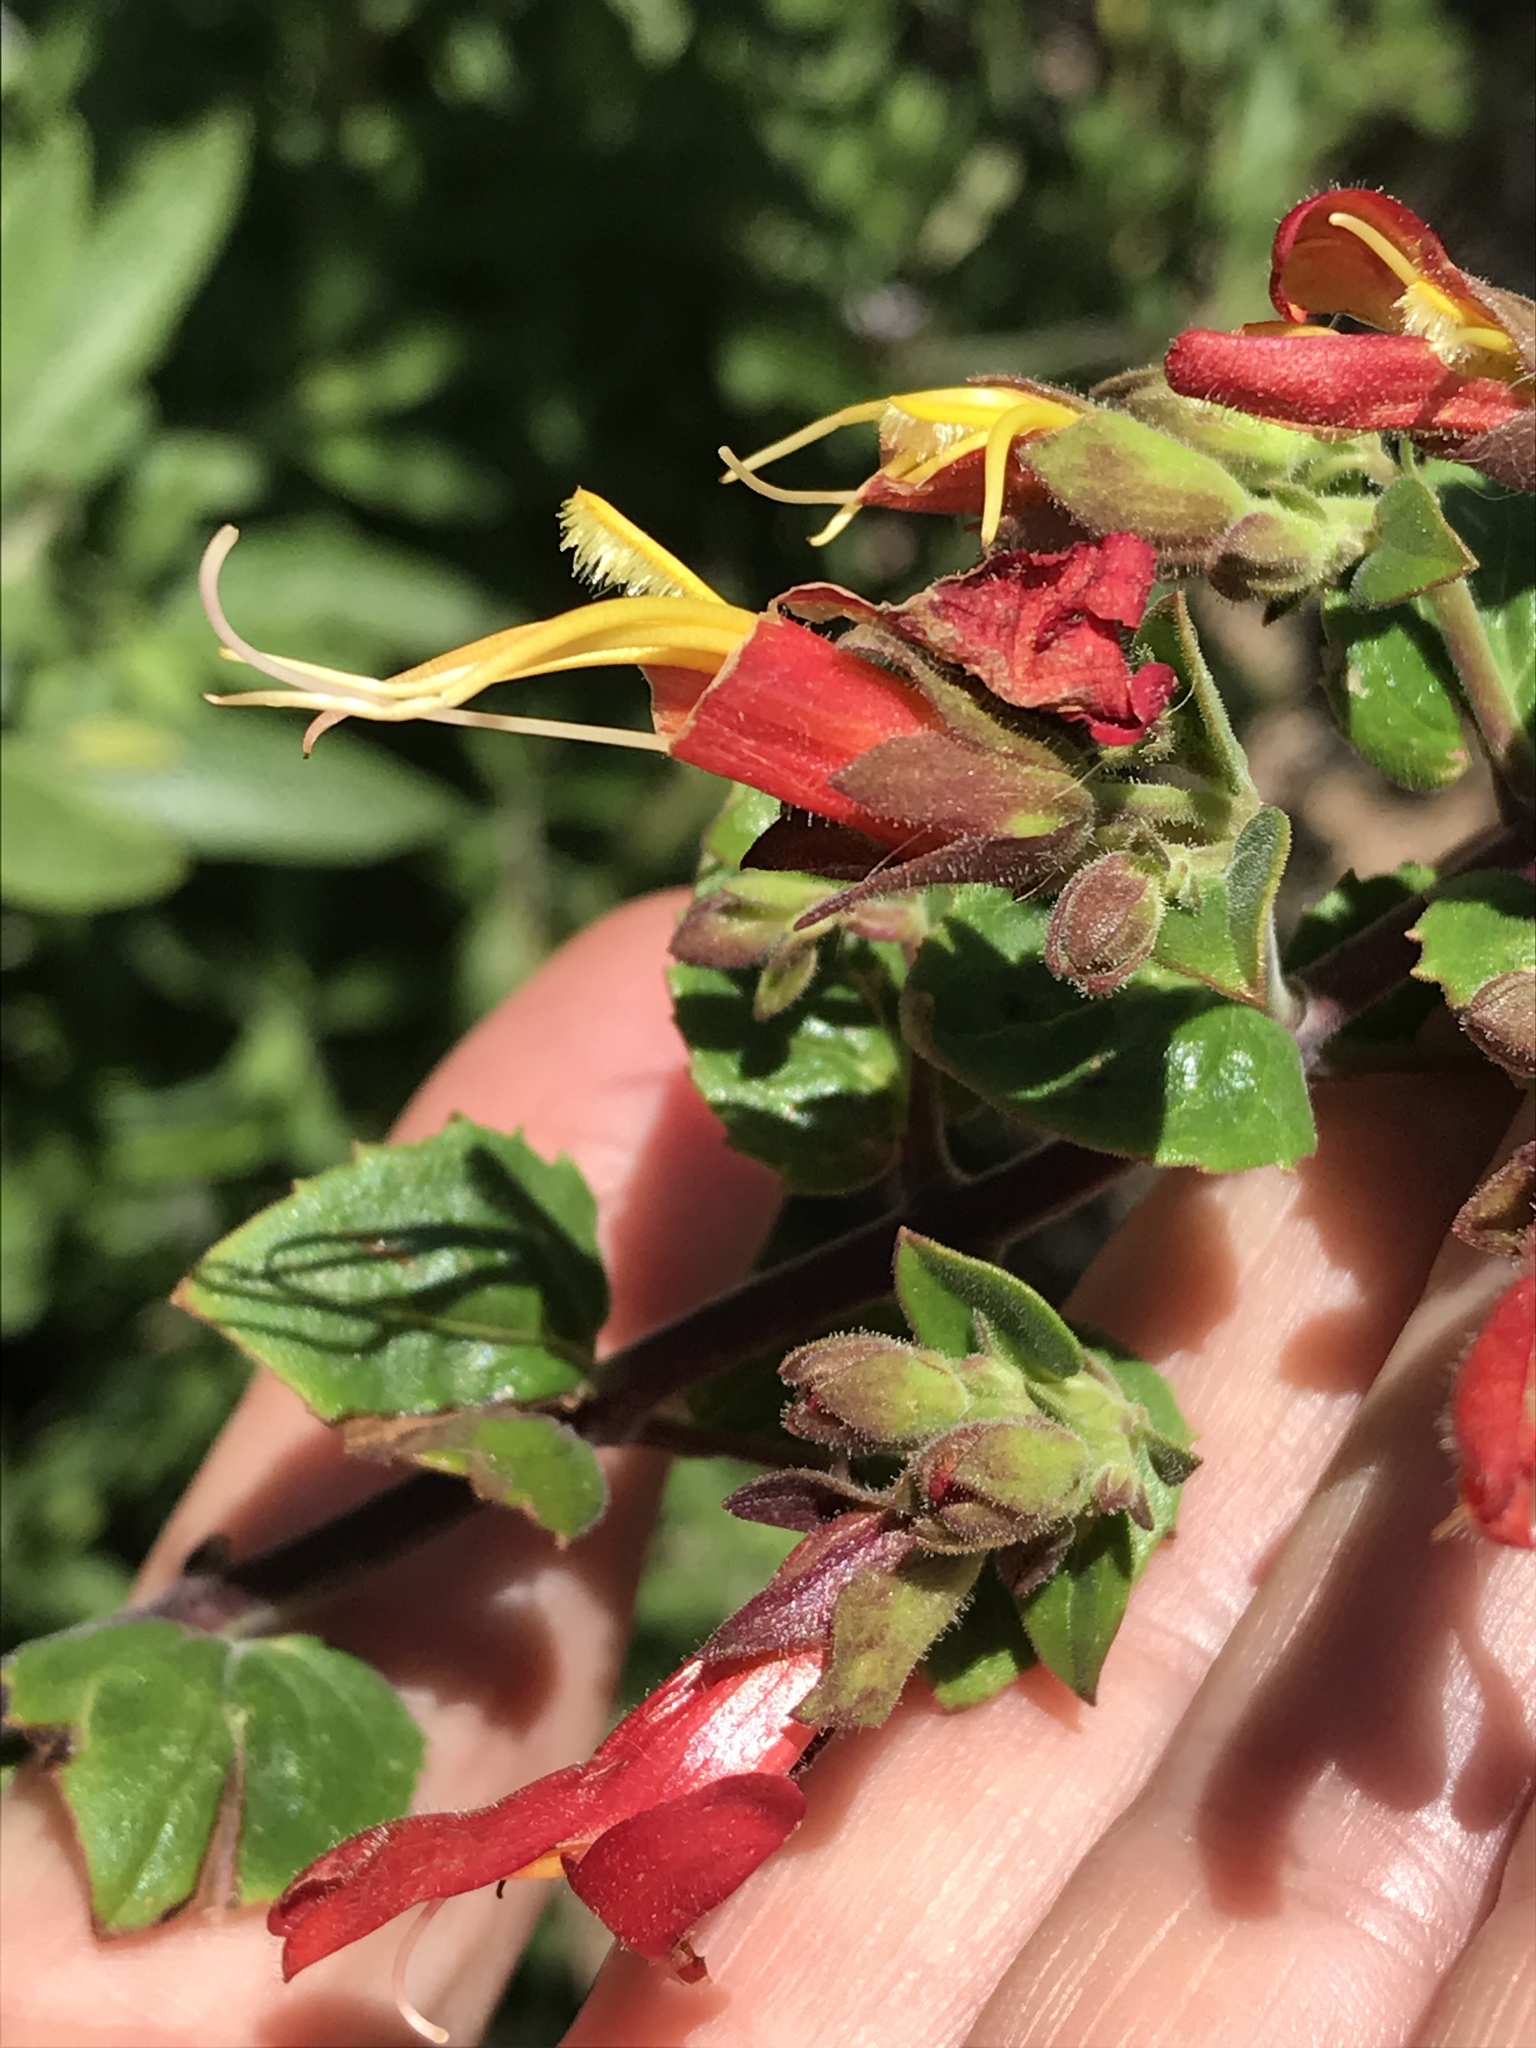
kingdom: Plantae
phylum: Tracheophyta
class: Magnoliopsida
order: Lamiales
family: Plantaginaceae
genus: Keckiella
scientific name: Keckiella cordifolia
